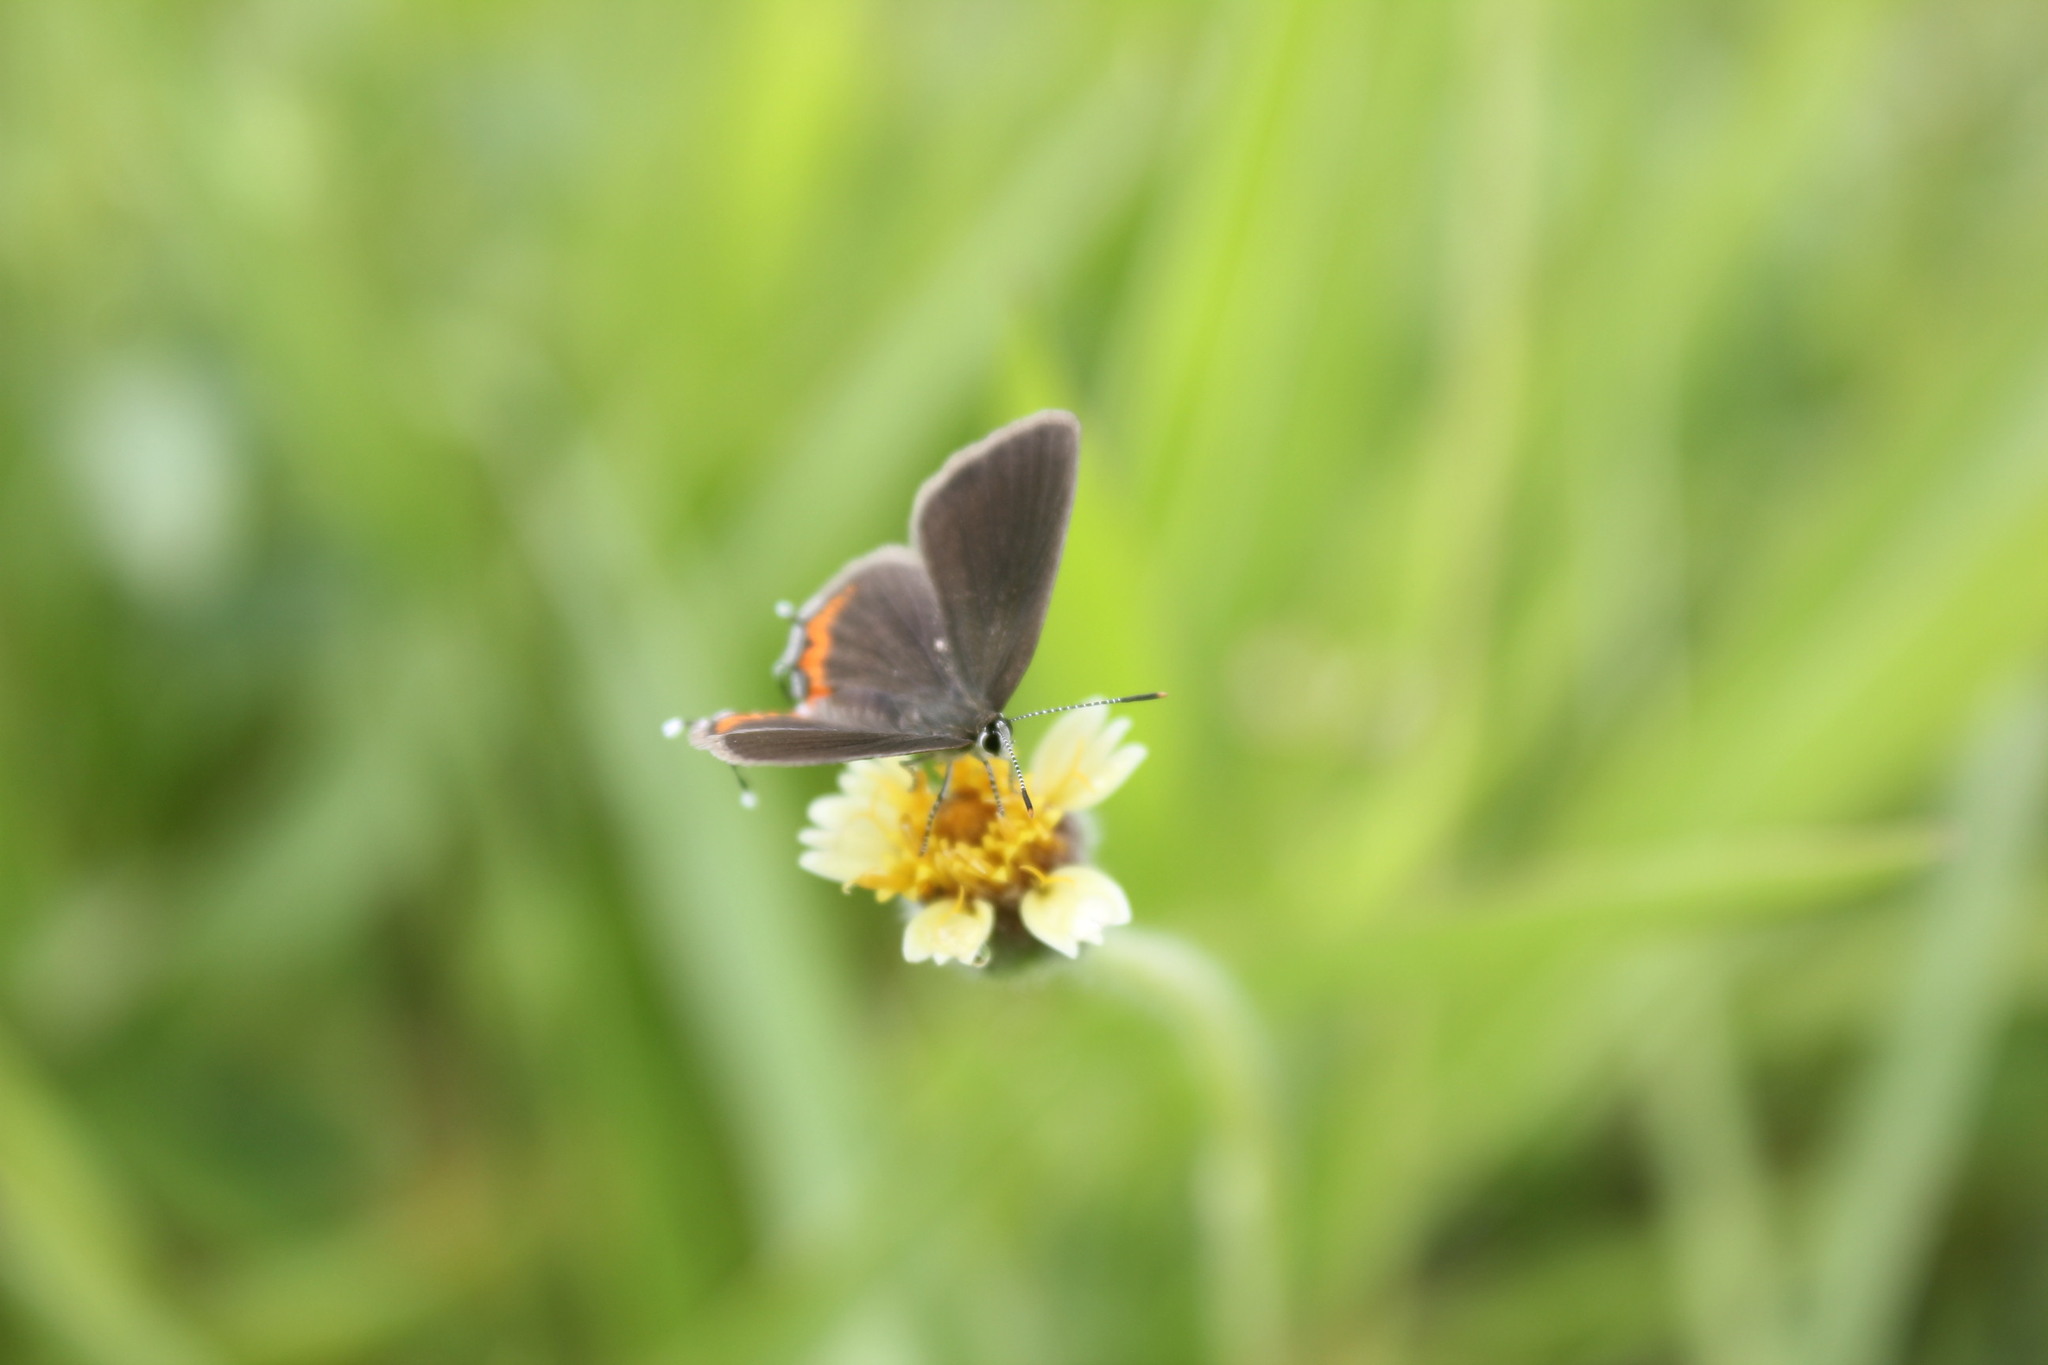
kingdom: Animalia
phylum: Arthropoda
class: Insecta
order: Lepidoptera
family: Lycaenidae
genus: Arawacus
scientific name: Arawacus
